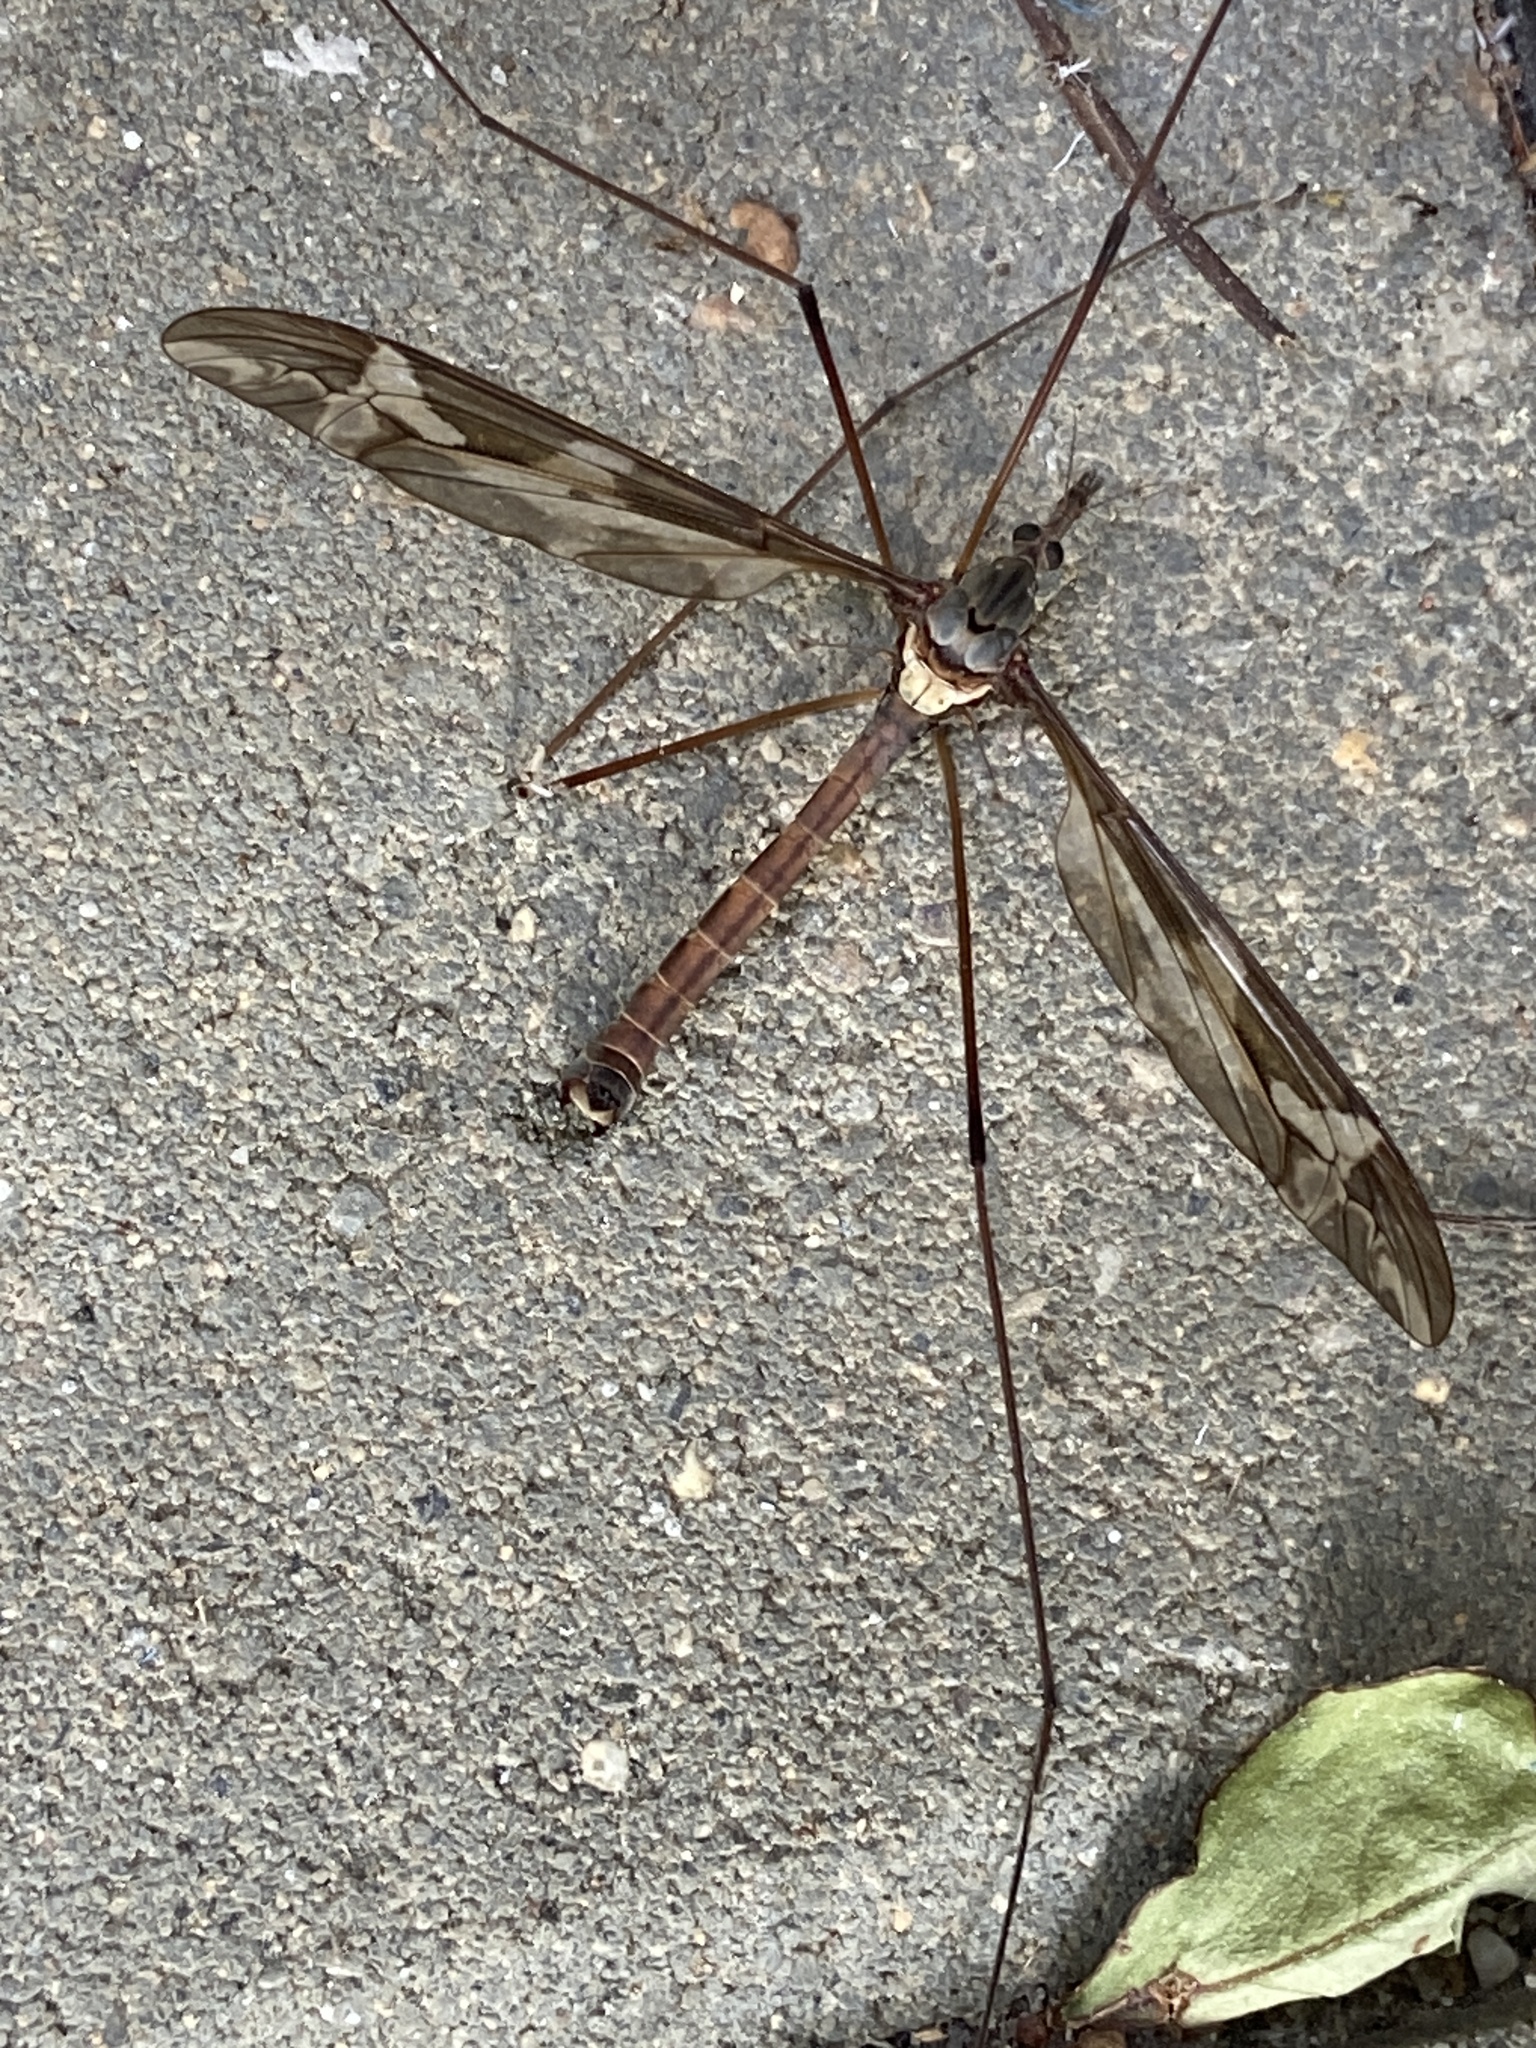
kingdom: Animalia
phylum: Arthropoda
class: Insecta
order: Diptera
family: Tipulidae
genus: Tipula
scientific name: Tipula maxima
